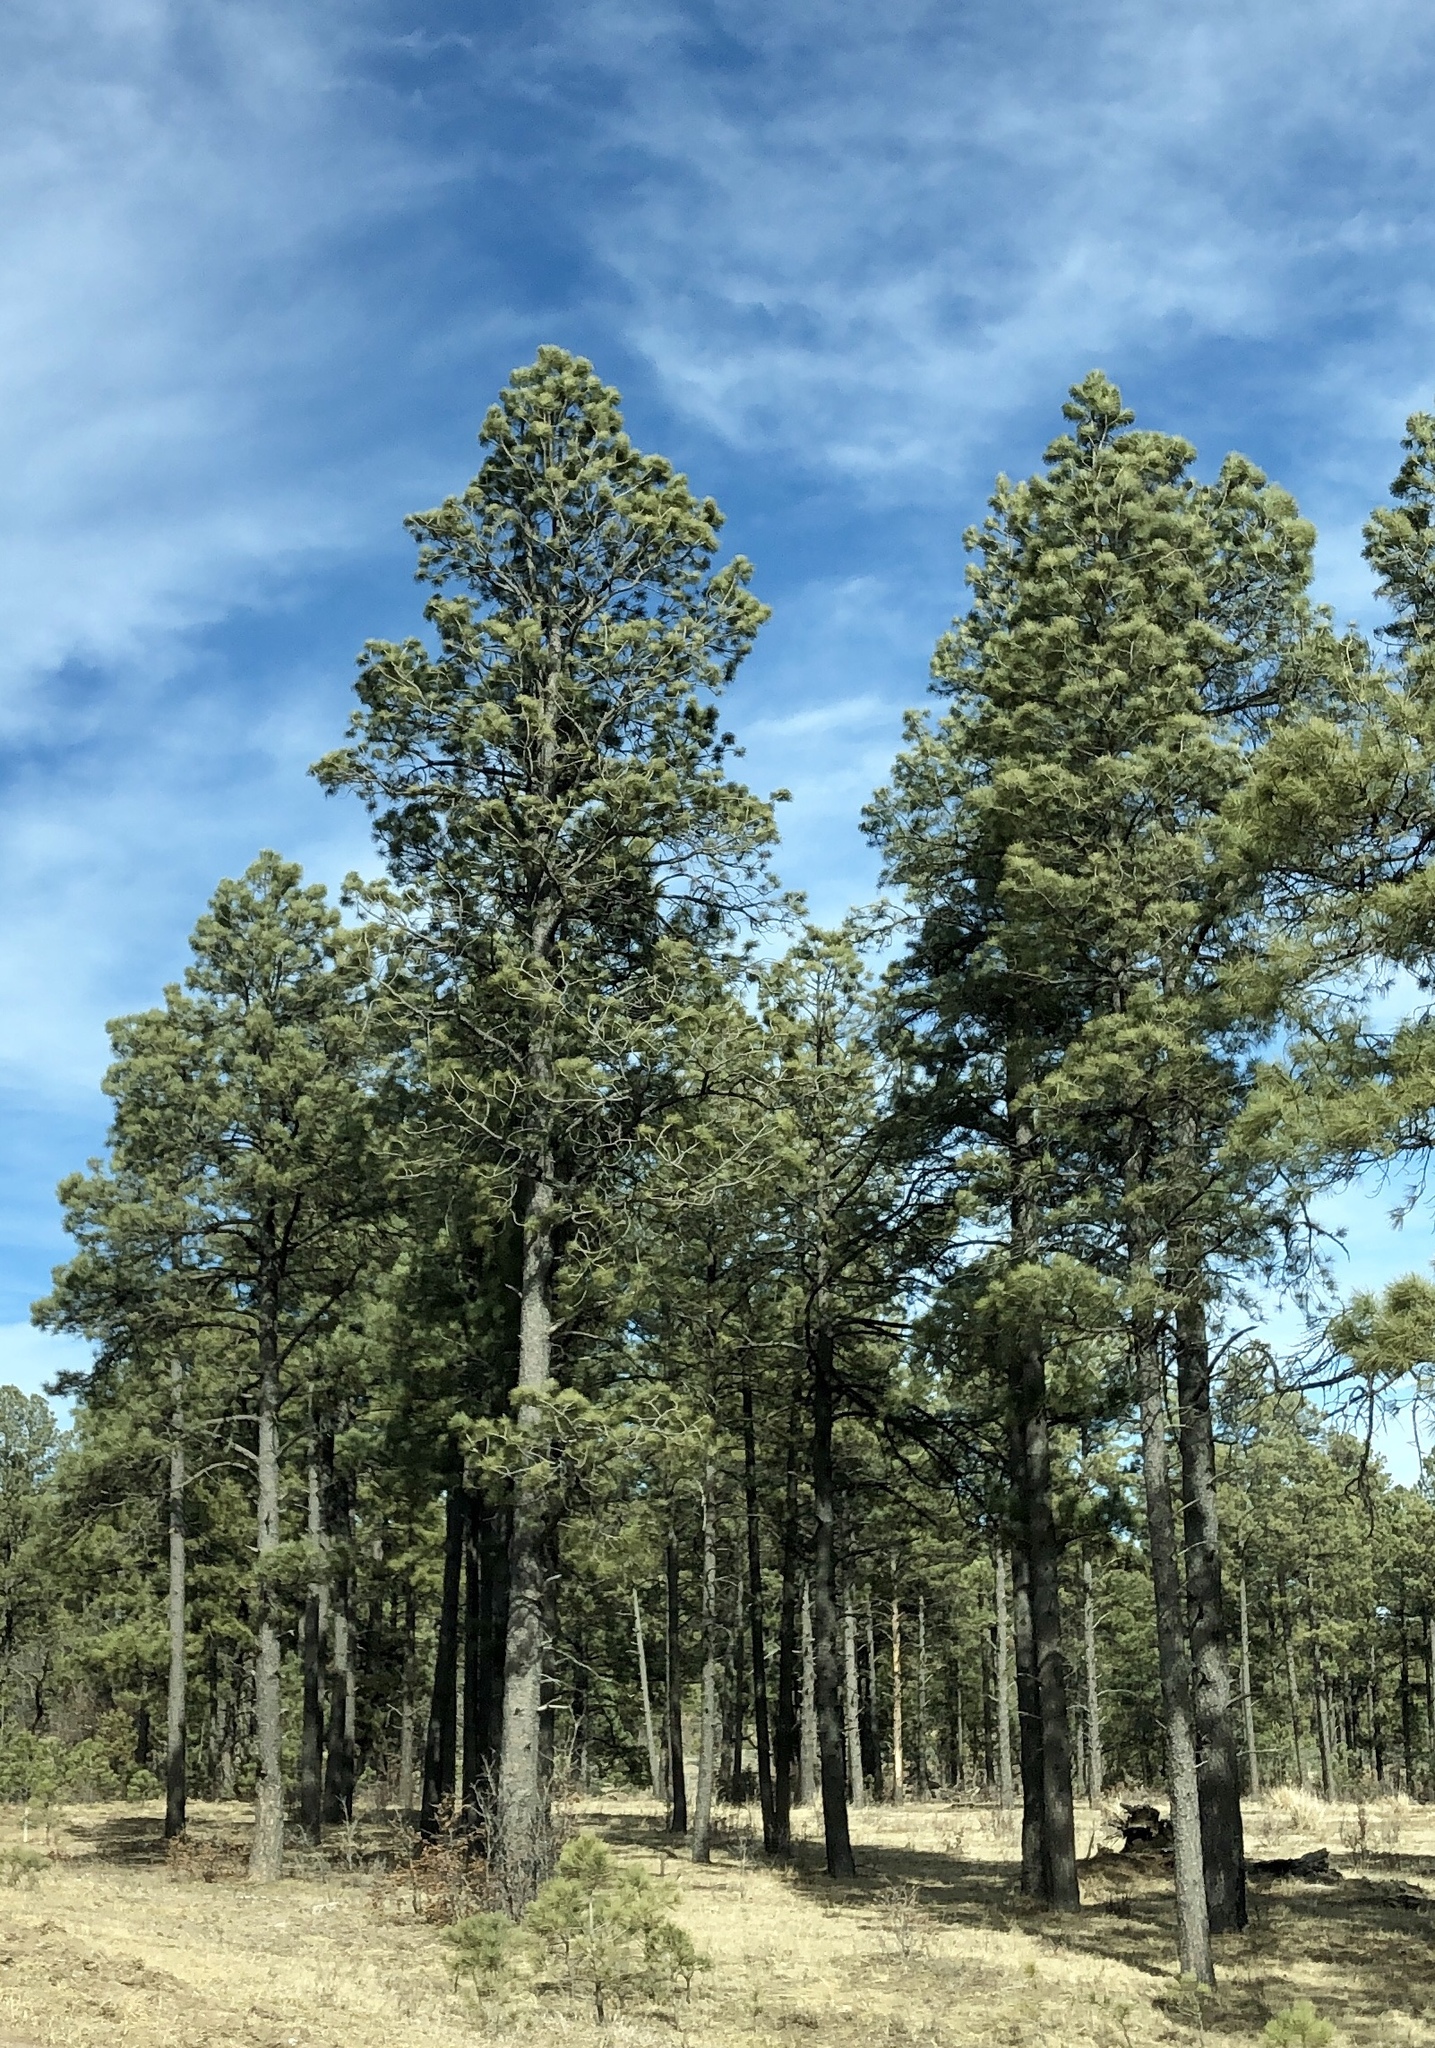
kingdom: Plantae
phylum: Tracheophyta
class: Pinopsida
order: Pinales
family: Pinaceae
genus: Pinus
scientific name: Pinus ponderosa
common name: Western yellow-pine
